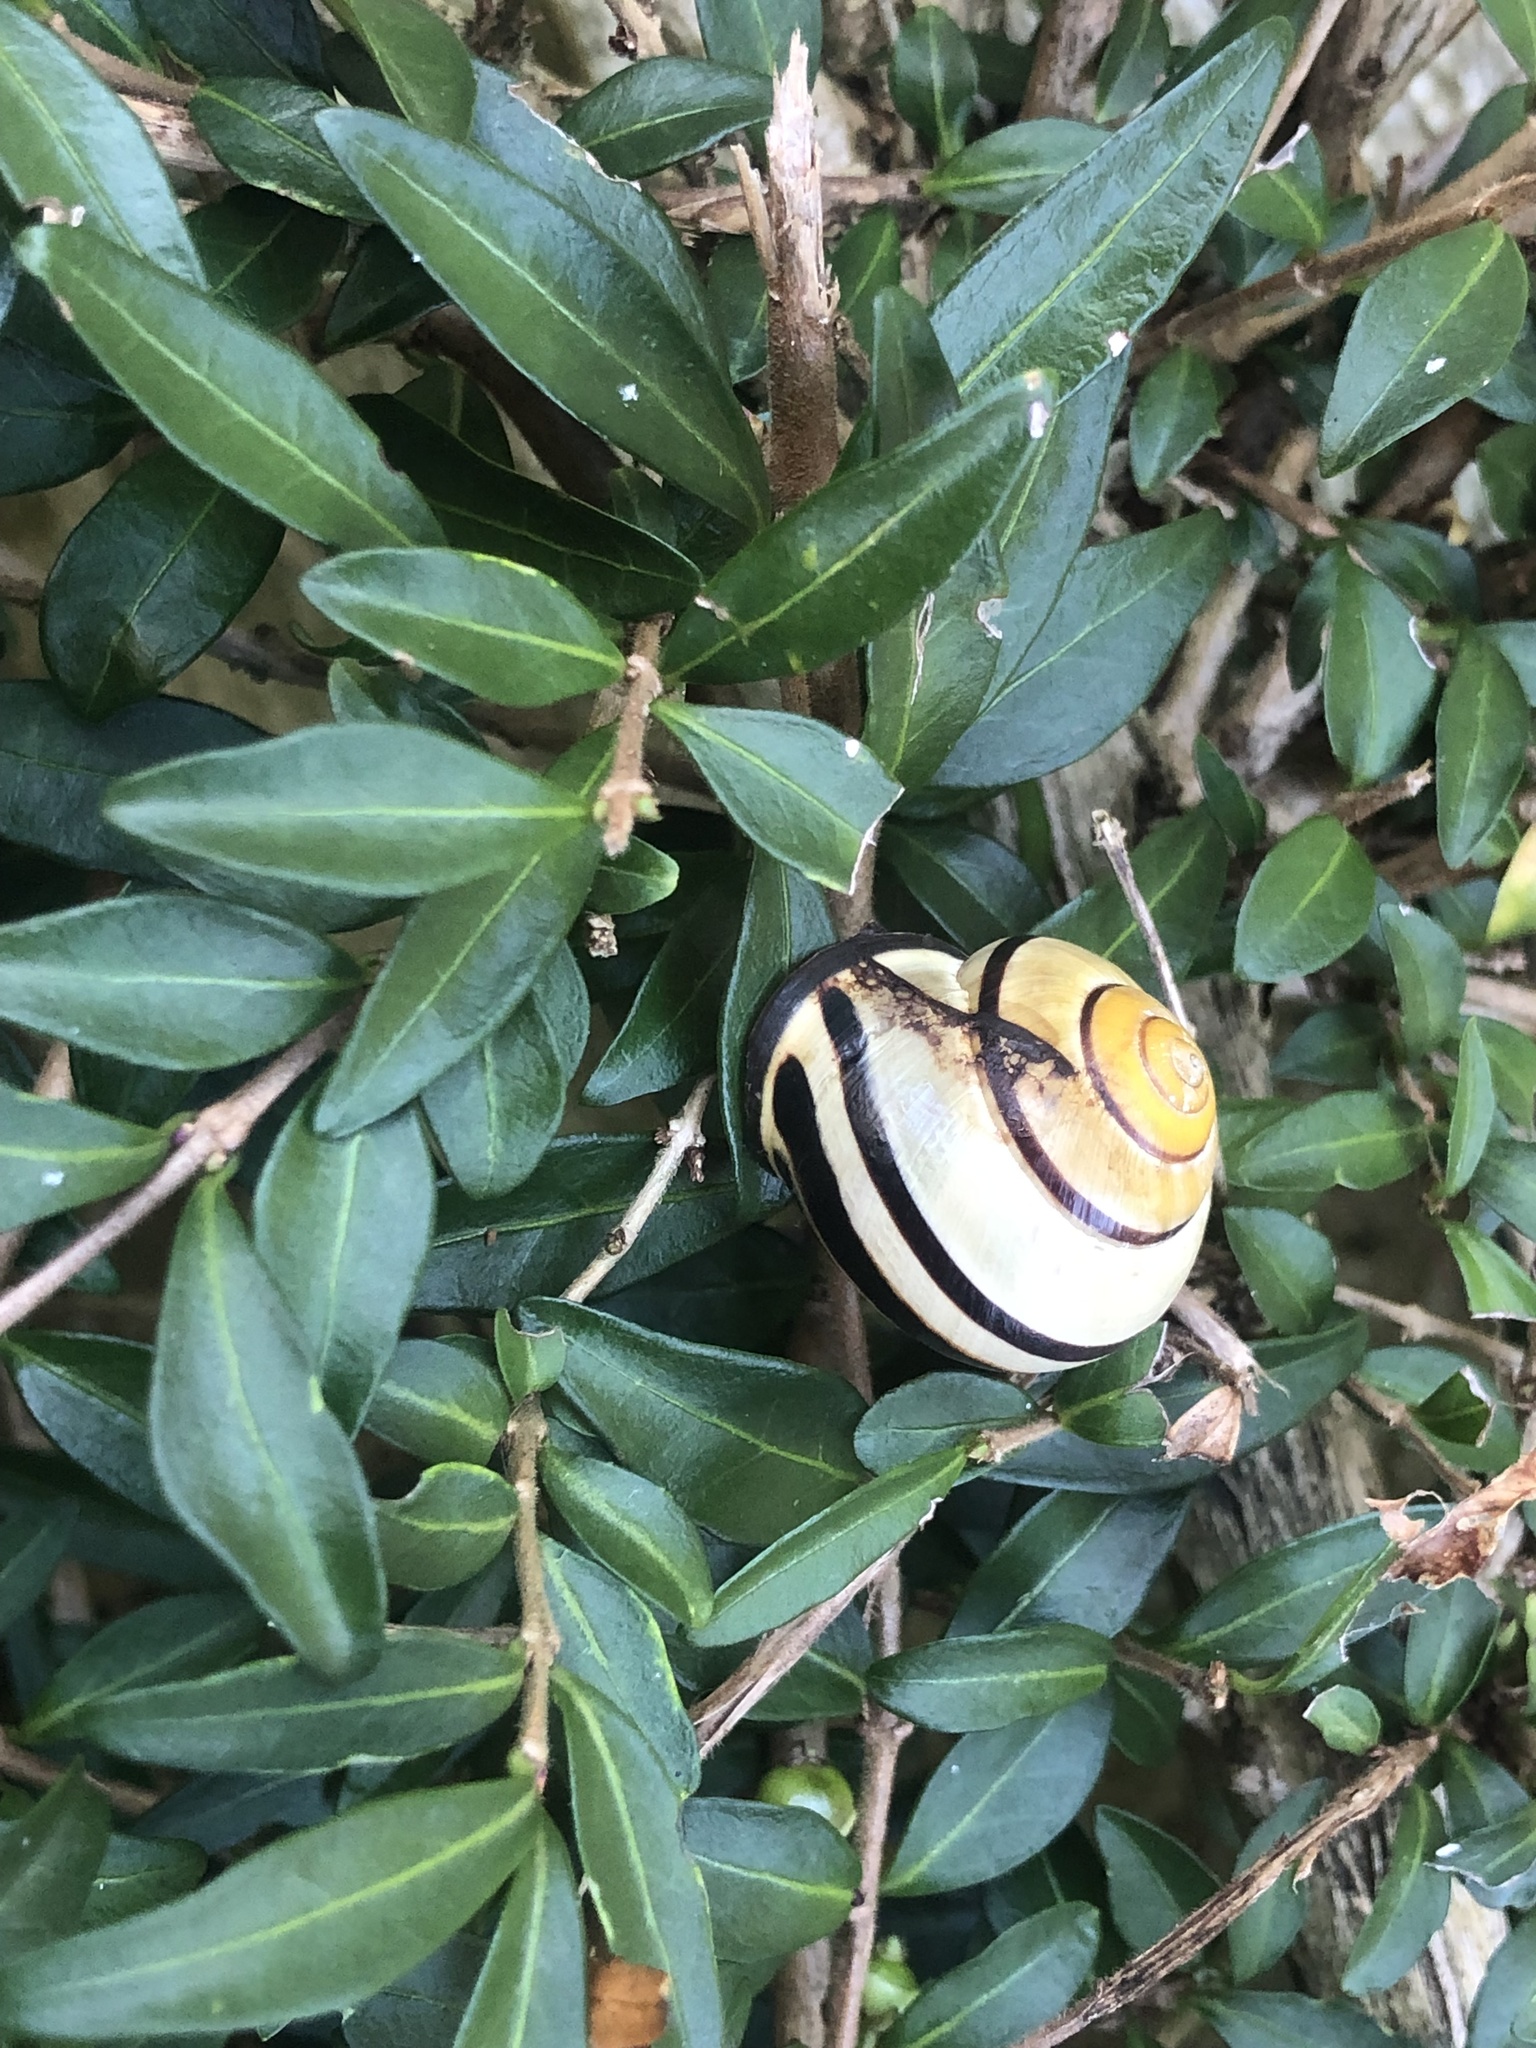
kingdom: Animalia
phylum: Mollusca
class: Gastropoda
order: Stylommatophora
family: Helicidae
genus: Cepaea
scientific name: Cepaea nemoralis
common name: Grovesnail
